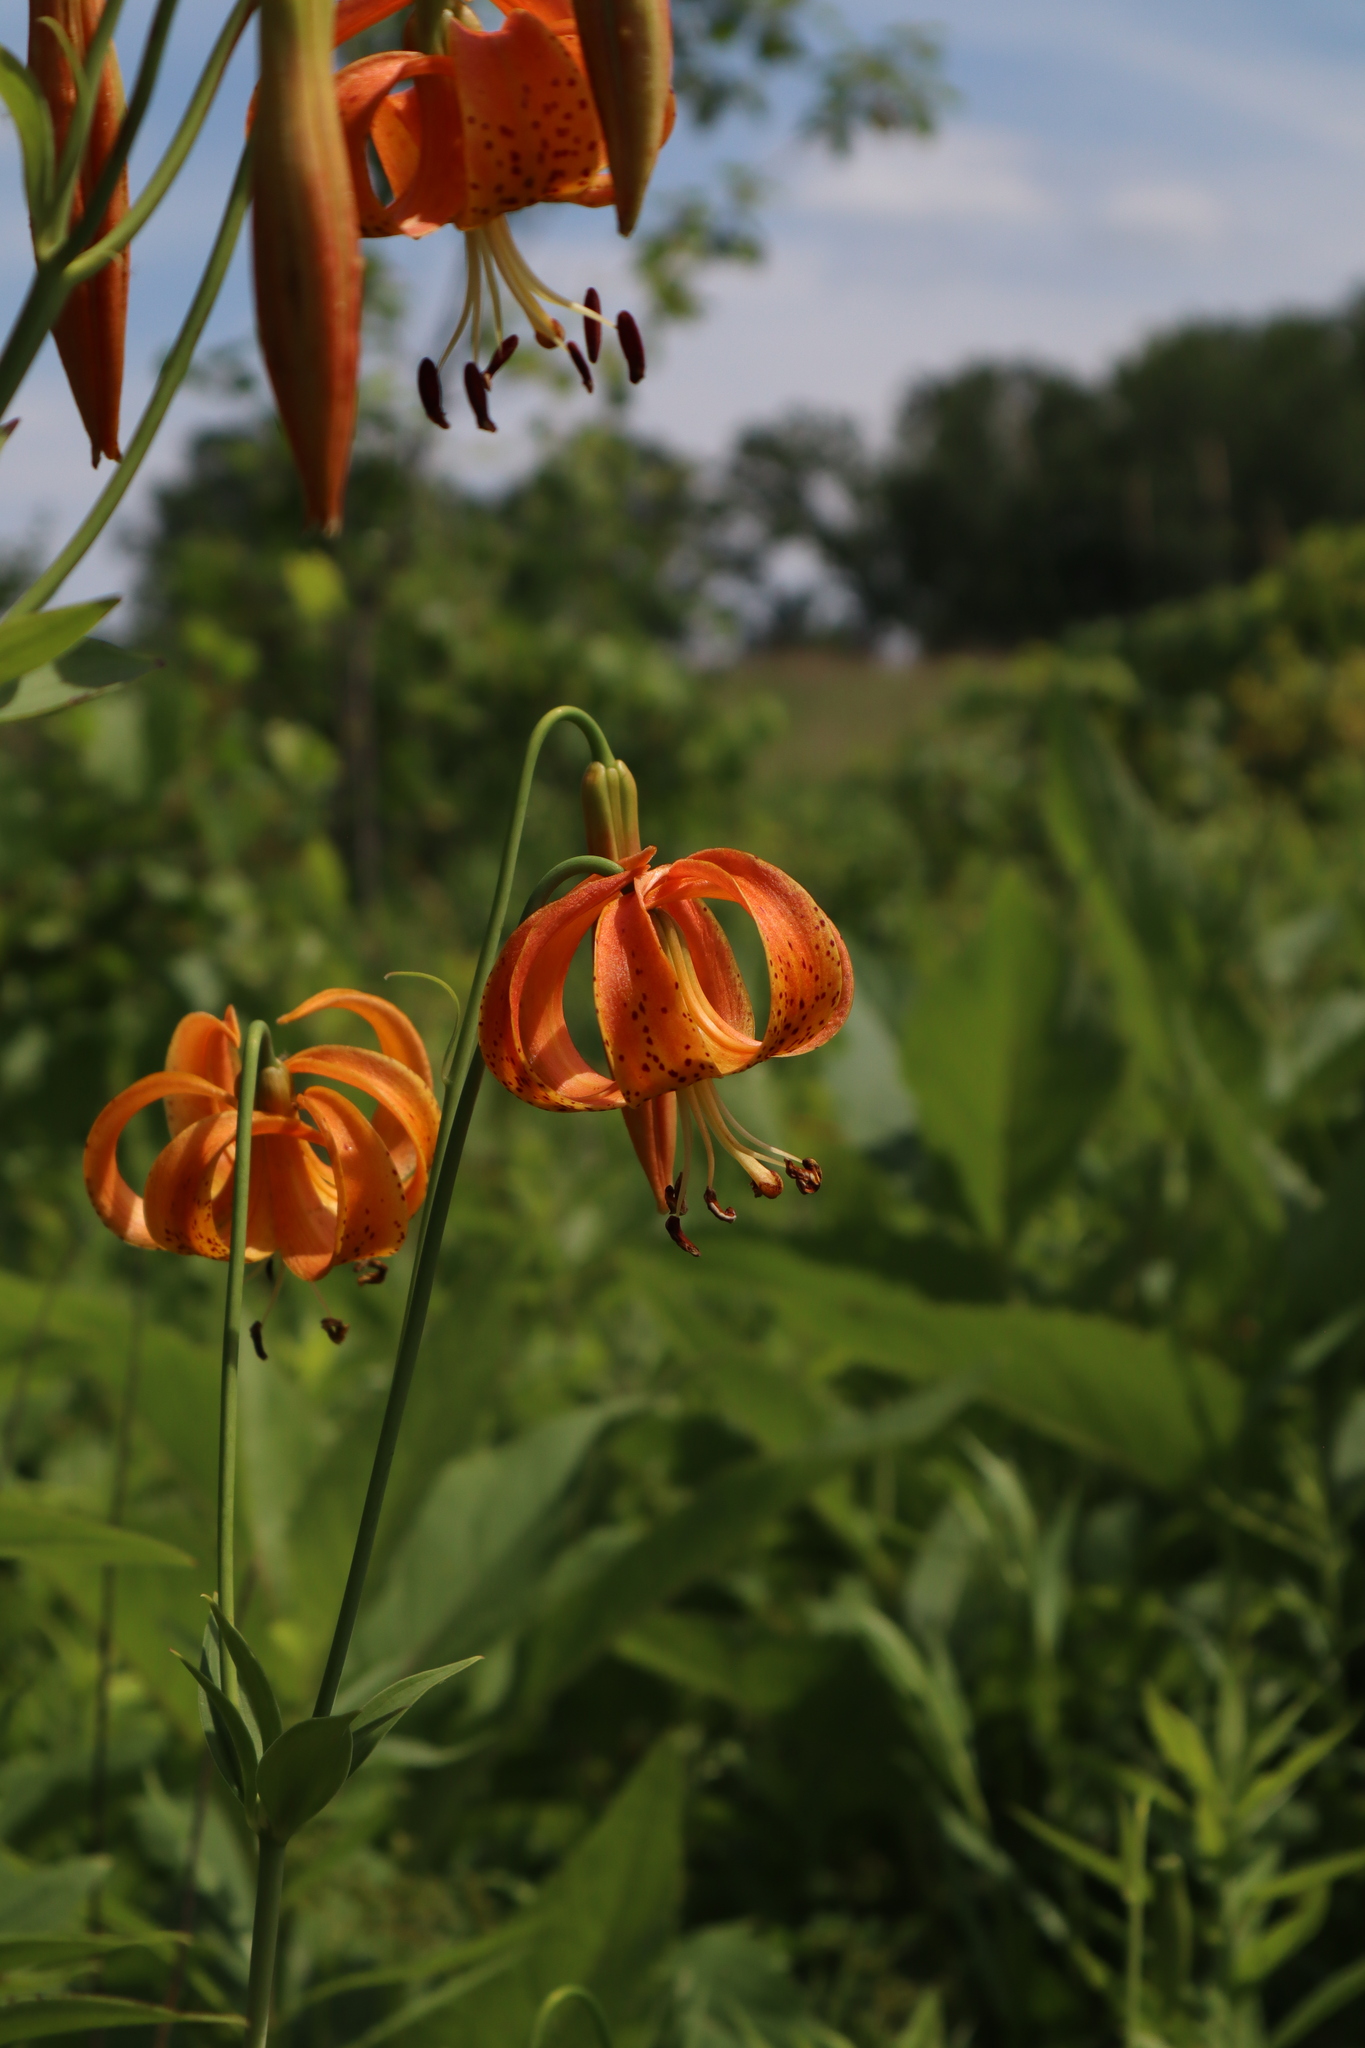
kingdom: Plantae
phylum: Tracheophyta
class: Liliopsida
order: Liliales
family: Liliaceae
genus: Lilium
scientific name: Lilium michiganense
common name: Michigan lily
